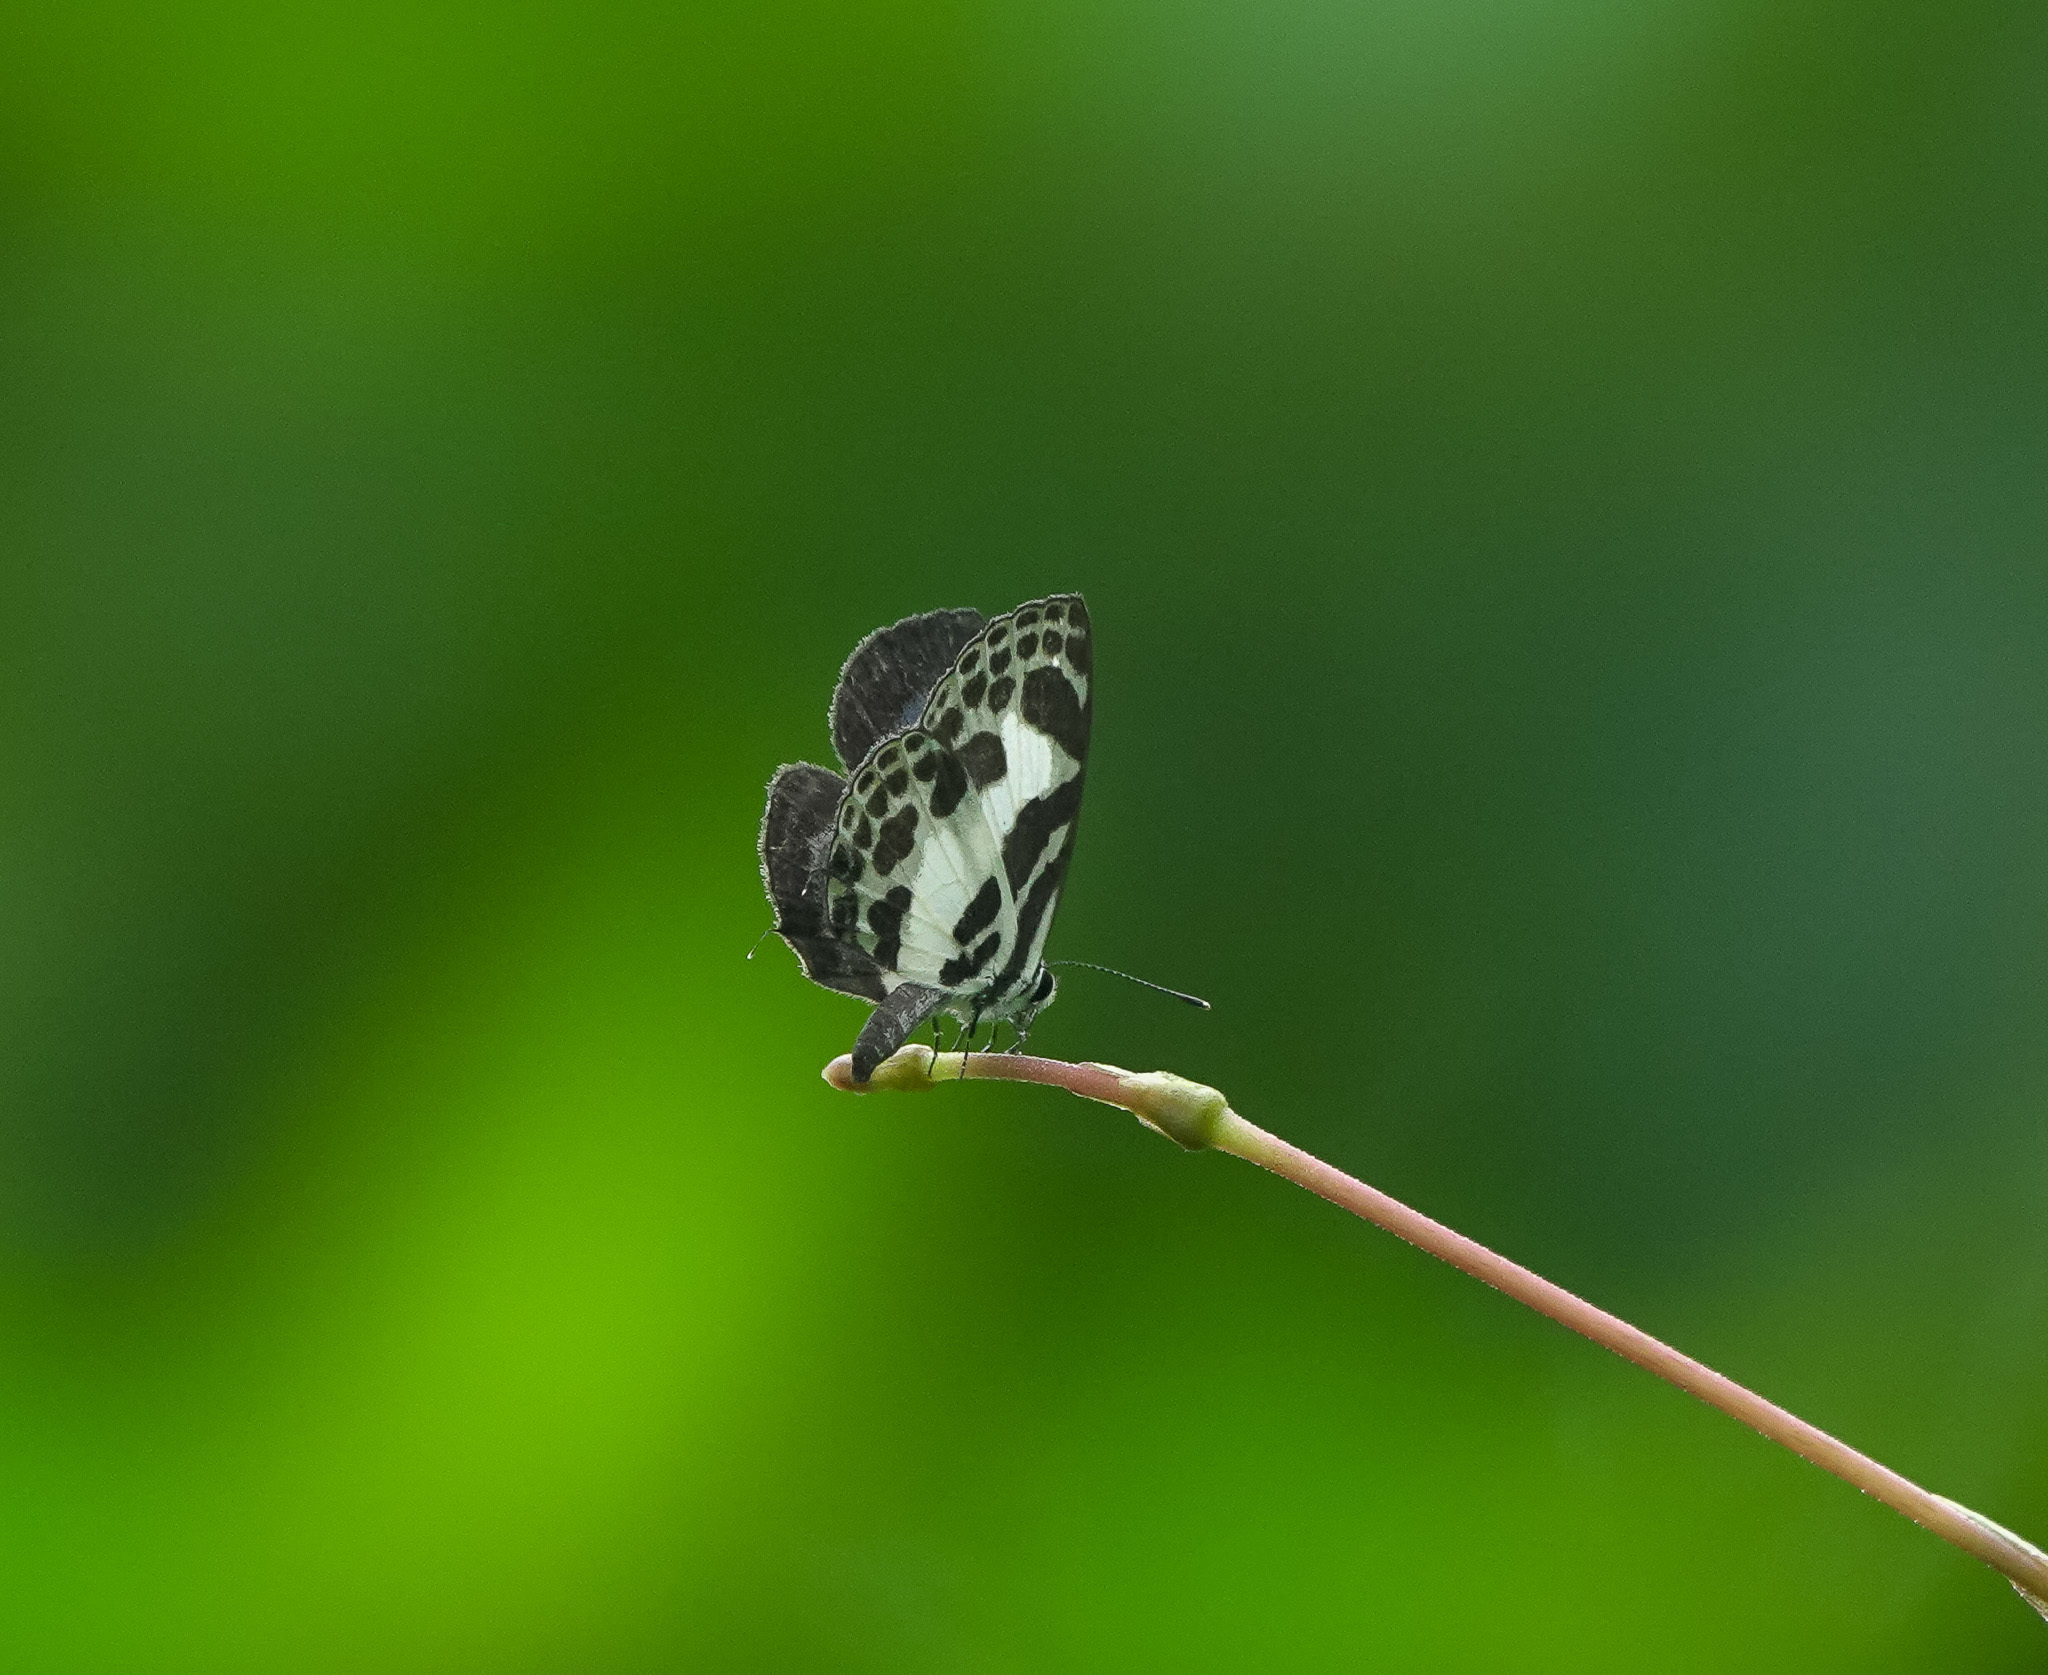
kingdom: Animalia
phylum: Arthropoda
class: Insecta
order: Lepidoptera
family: Lycaenidae
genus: Discolampa
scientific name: Discolampa ethion
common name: Banded blue pierrot
